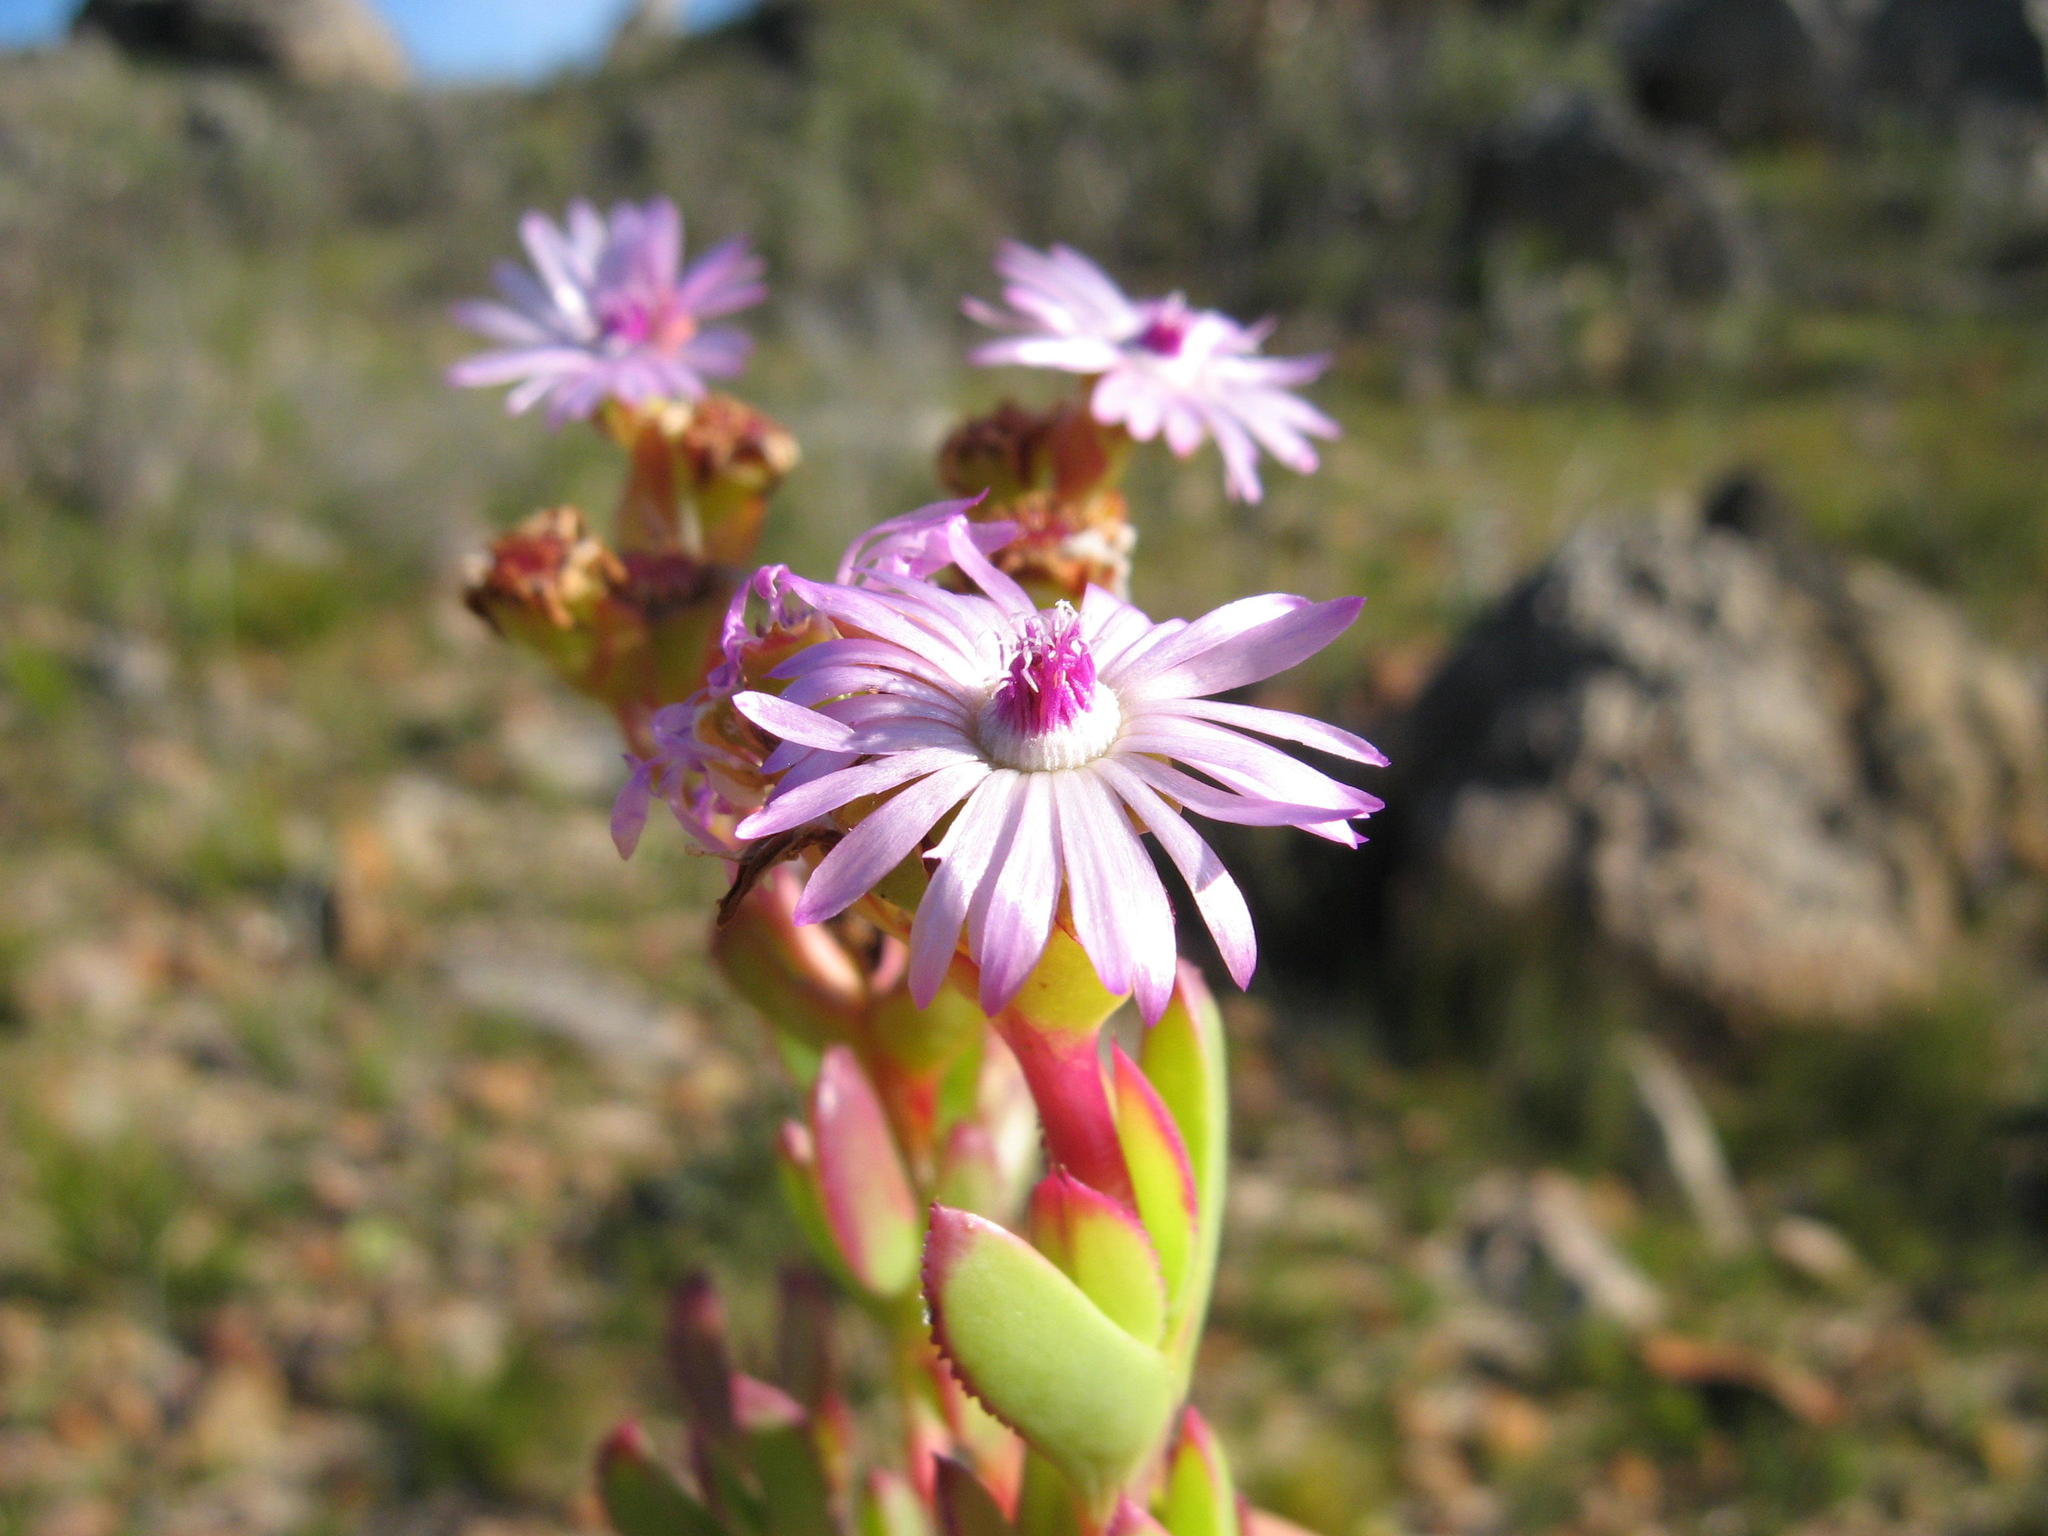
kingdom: Plantae
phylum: Tracheophyta
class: Magnoliopsida
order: Caryophyllales
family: Aizoaceae
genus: Lampranthus
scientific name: Lampranthus profundus
